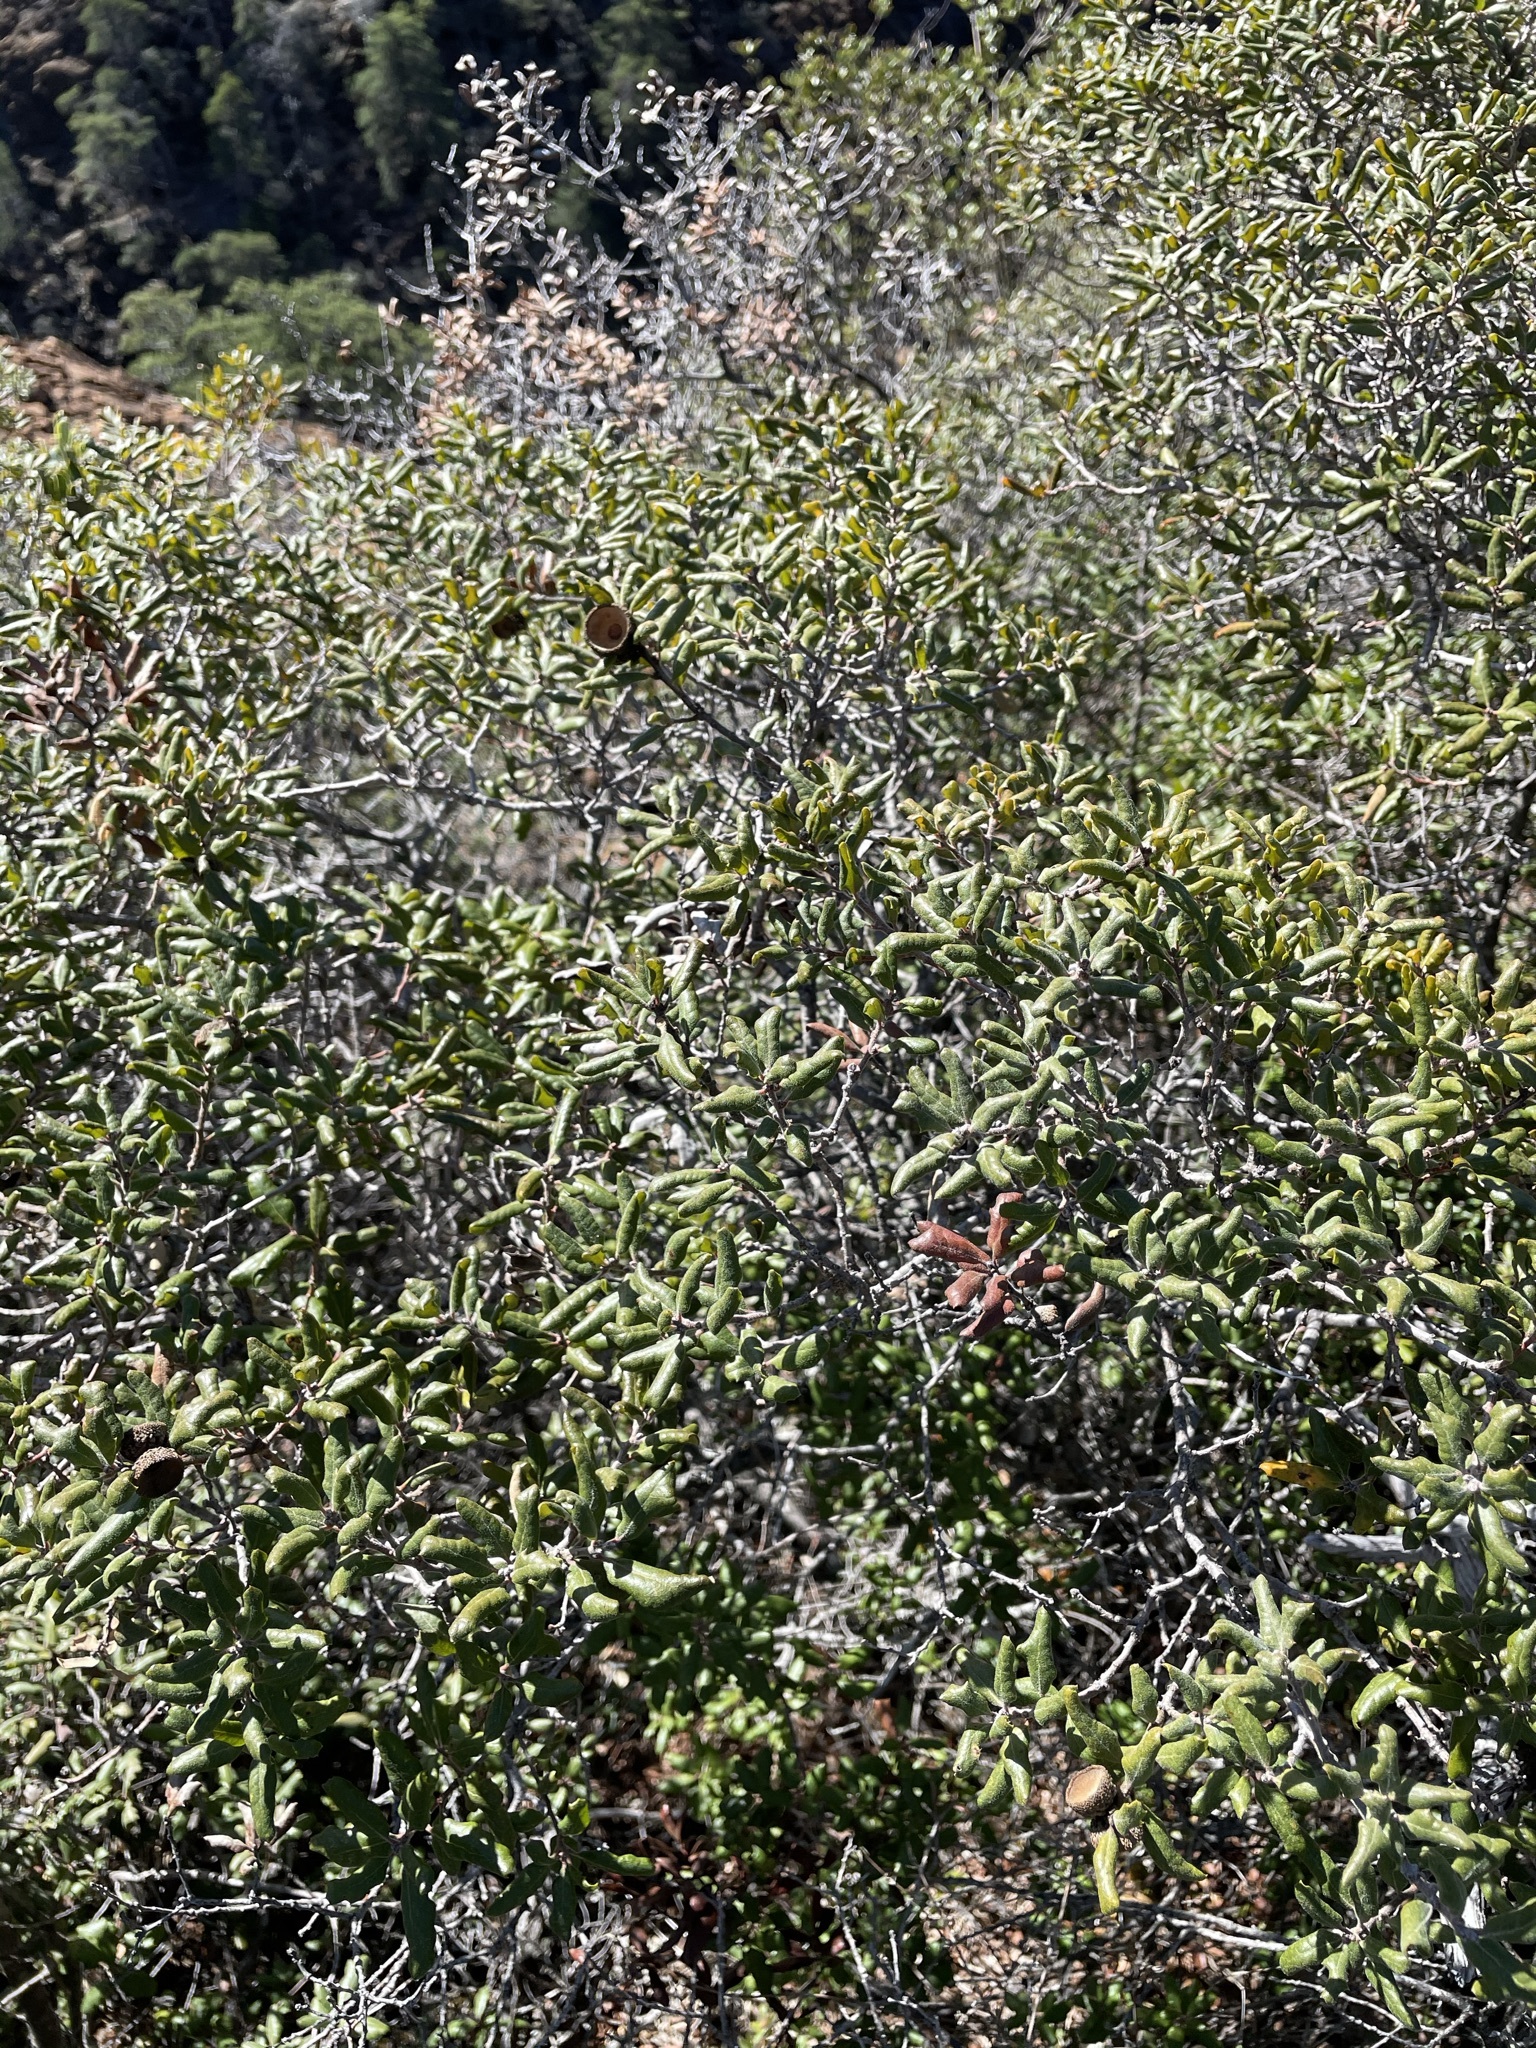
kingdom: Plantae
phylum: Tracheophyta
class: Magnoliopsida
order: Fagales
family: Fagaceae
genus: Quercus
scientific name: Quercus durata
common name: Leather oak
